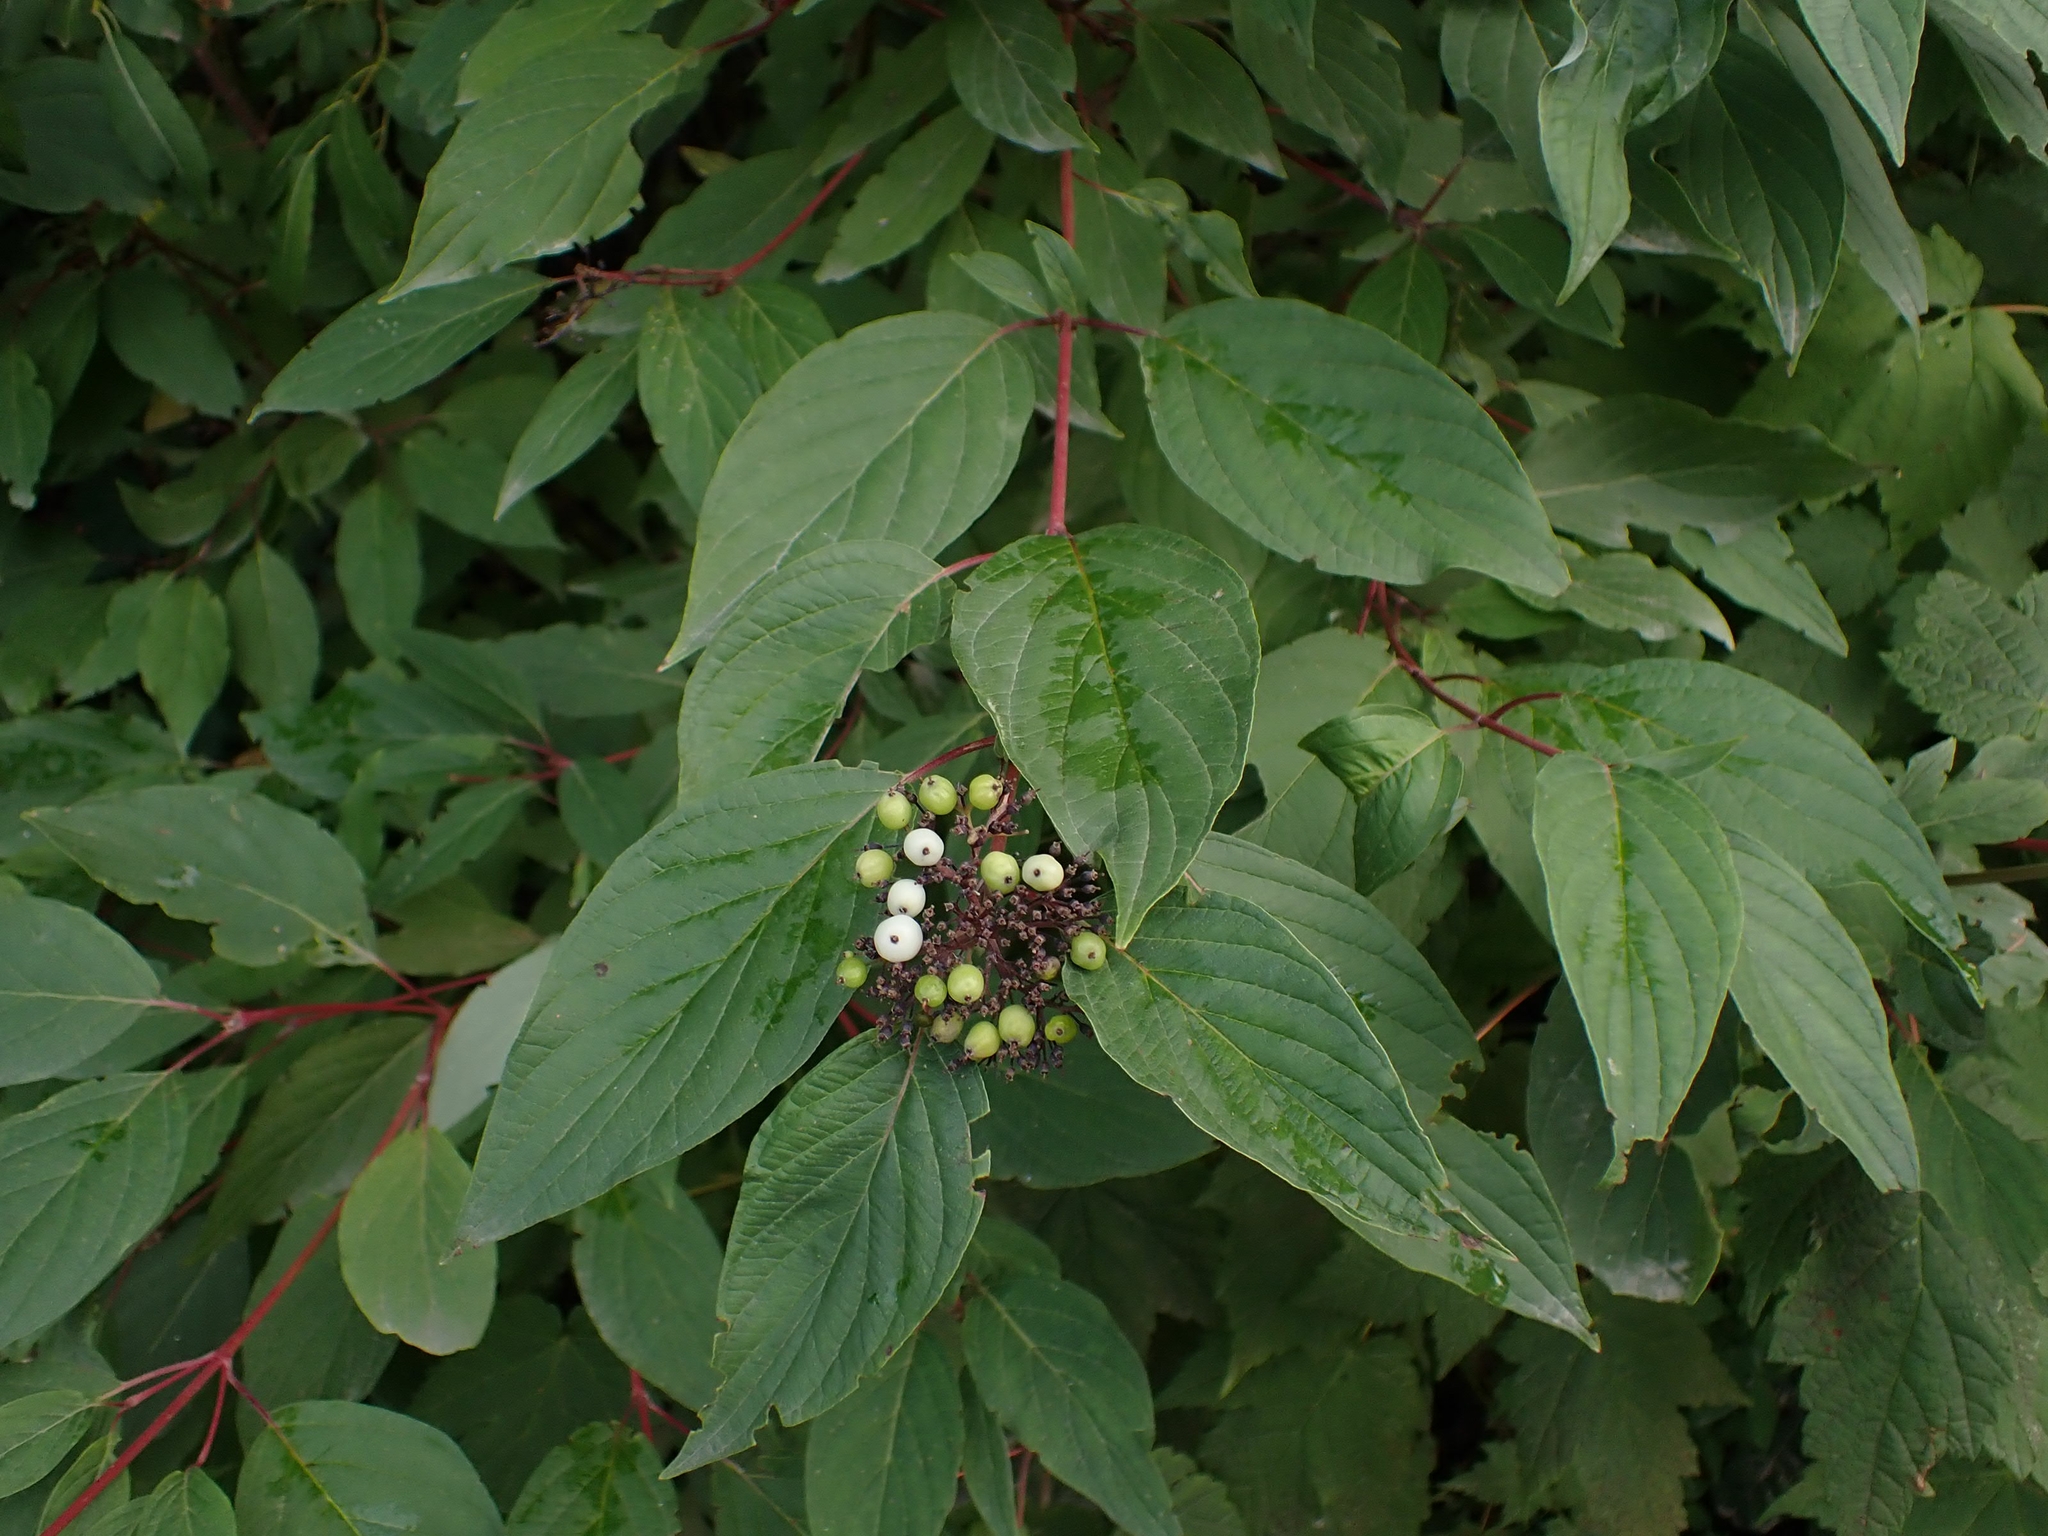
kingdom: Plantae
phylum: Tracheophyta
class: Magnoliopsida
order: Cornales
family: Cornaceae
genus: Cornus
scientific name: Cornus sericea
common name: Red-osier dogwood
